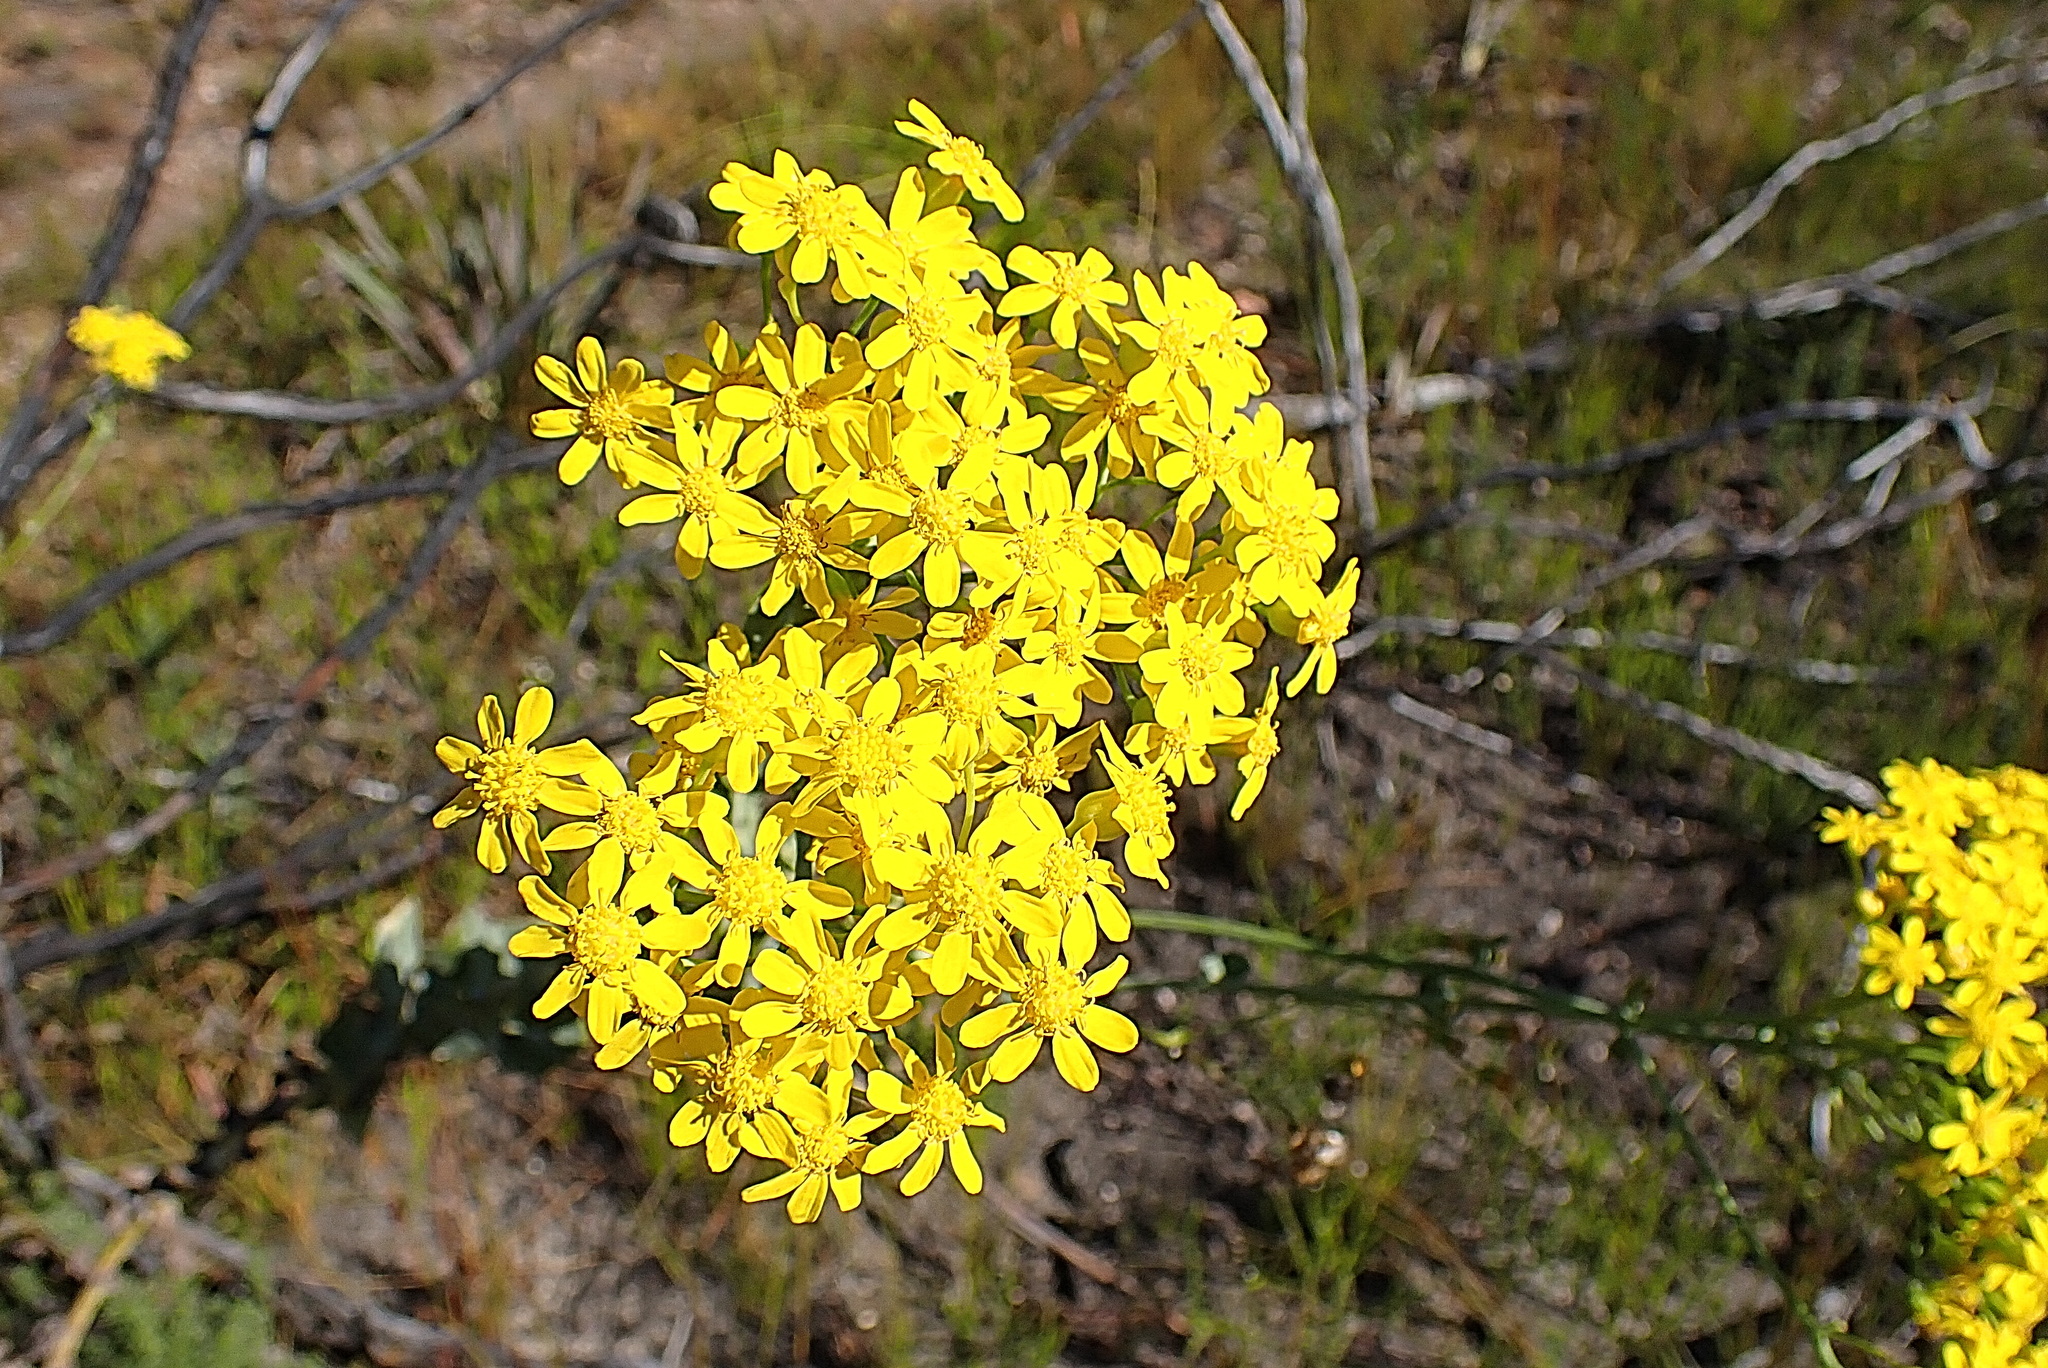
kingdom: Plantae
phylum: Tracheophyta
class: Magnoliopsida
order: Asterales
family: Asteraceae
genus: Othonna
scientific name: Othonna parviflora
